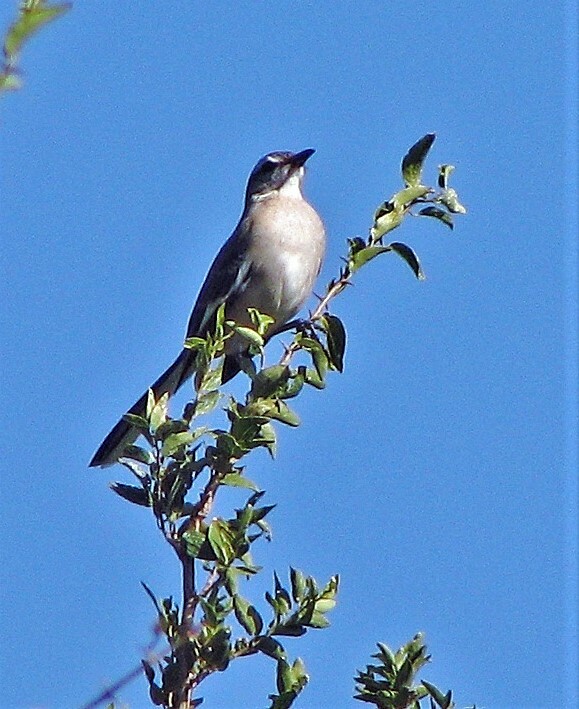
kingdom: Animalia
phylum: Chordata
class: Aves
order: Passeriformes
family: Mimidae
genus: Mimus
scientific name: Mimus triurus
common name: White-banded mockingbird
